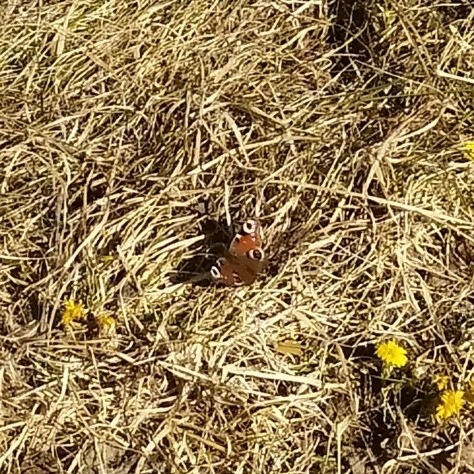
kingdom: Animalia
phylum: Arthropoda
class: Insecta
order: Lepidoptera
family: Nymphalidae
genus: Aglais
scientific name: Aglais io
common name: Peacock
